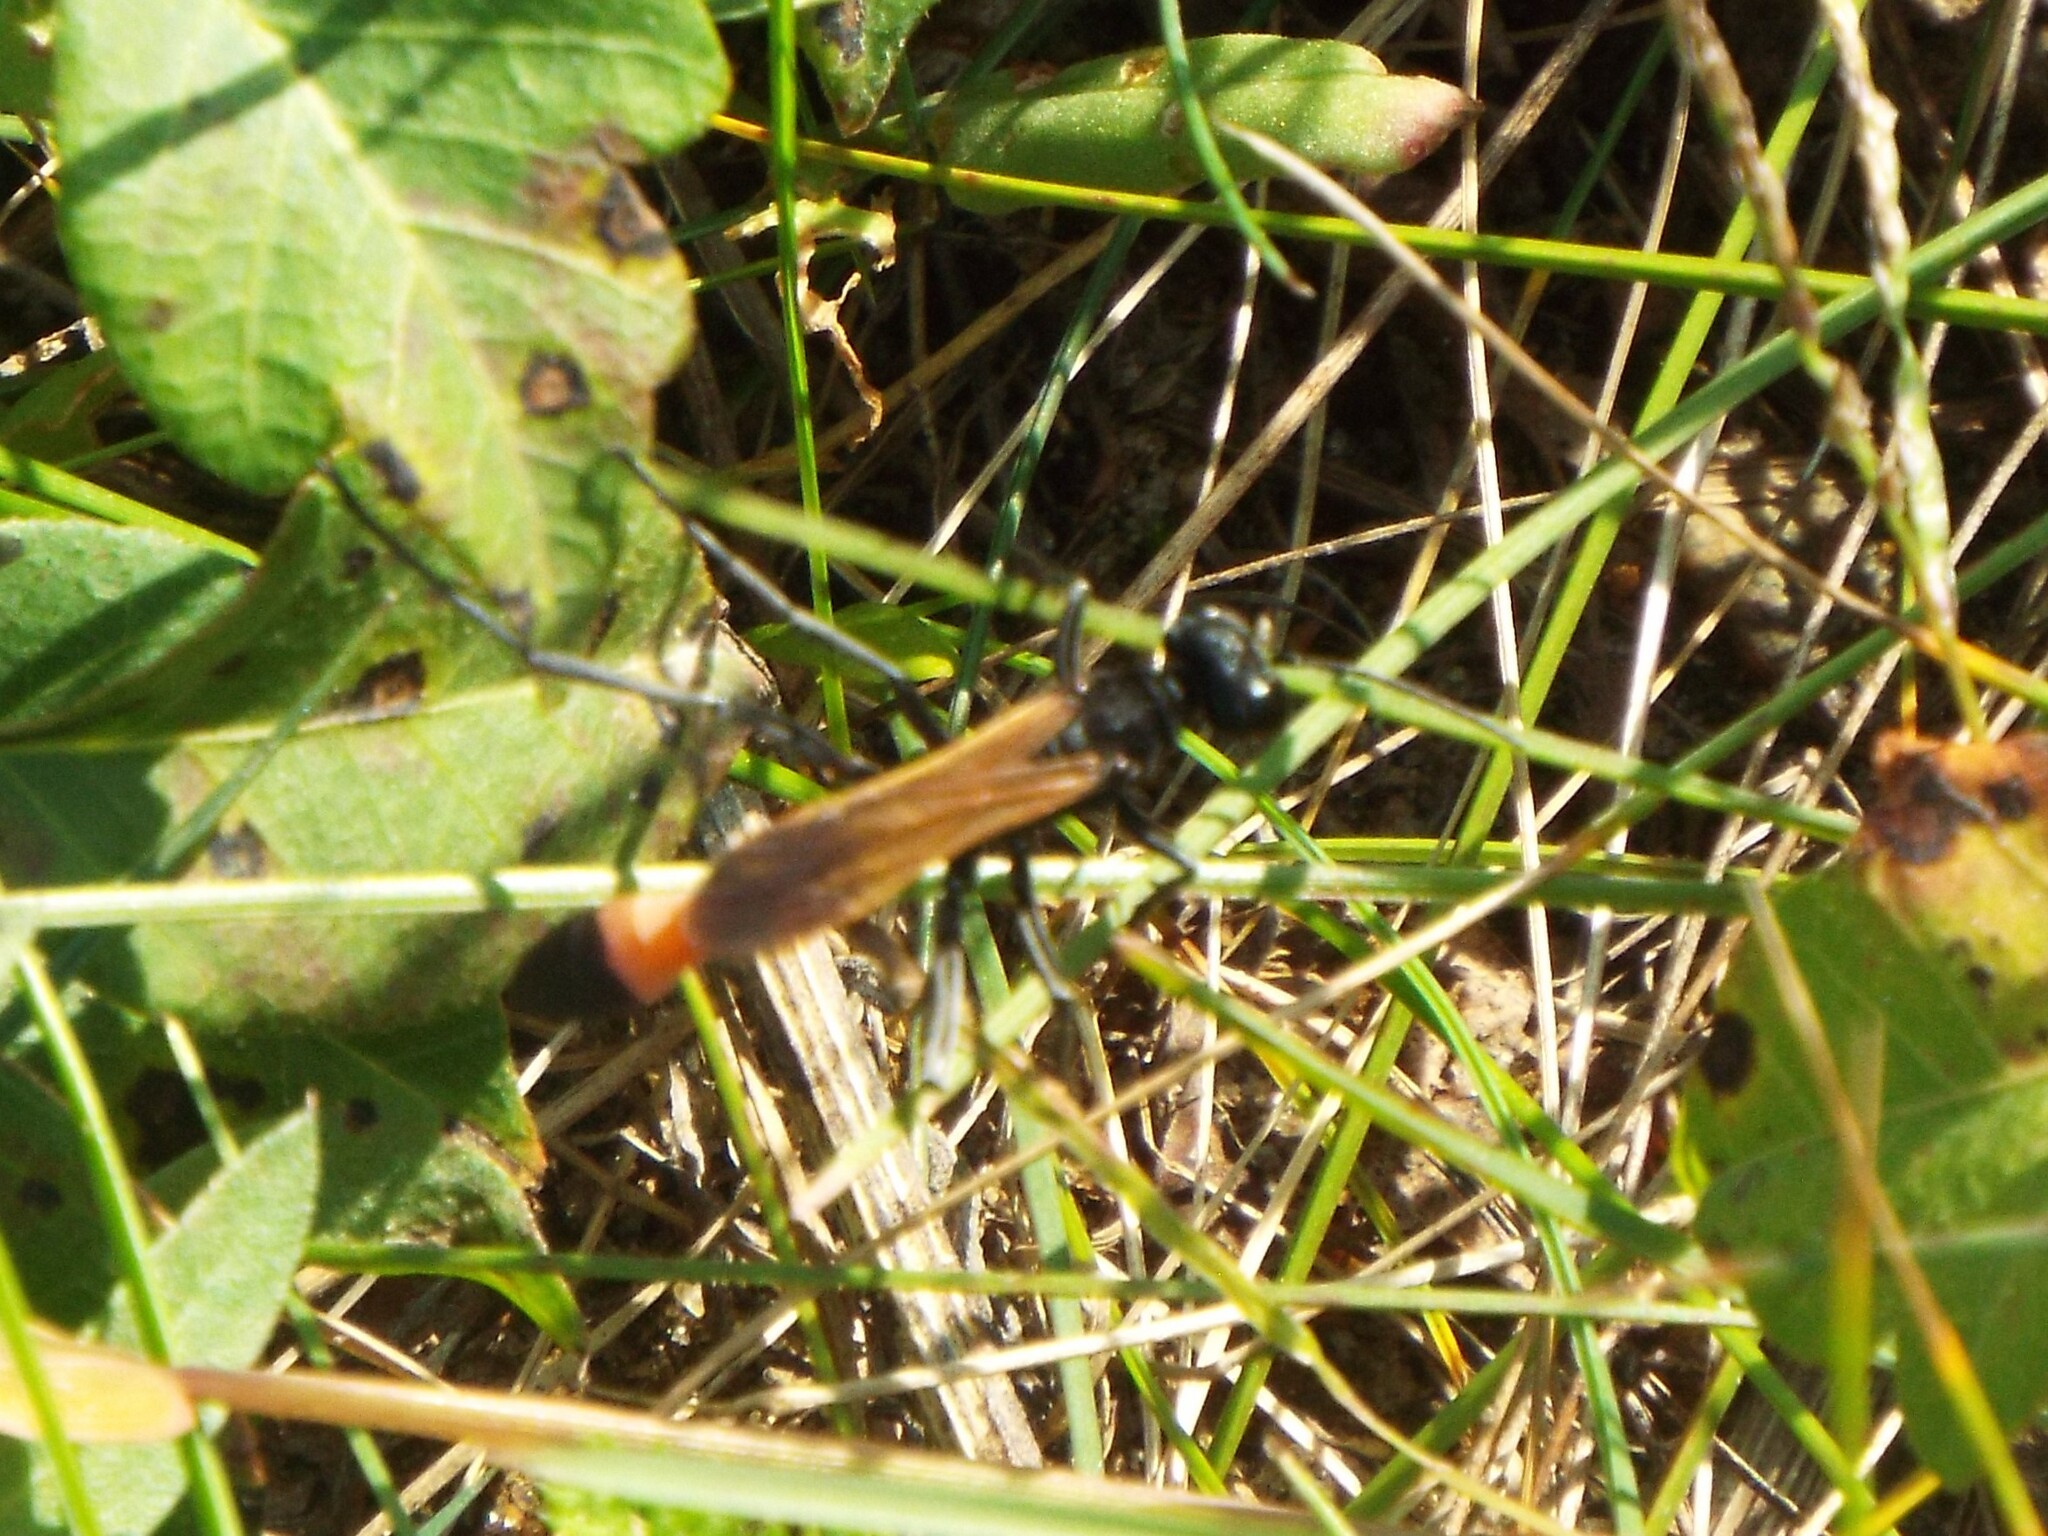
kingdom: Animalia
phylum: Arthropoda
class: Insecta
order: Hymenoptera
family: Sphecidae
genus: Ammophila
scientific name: Ammophila pictipennis
